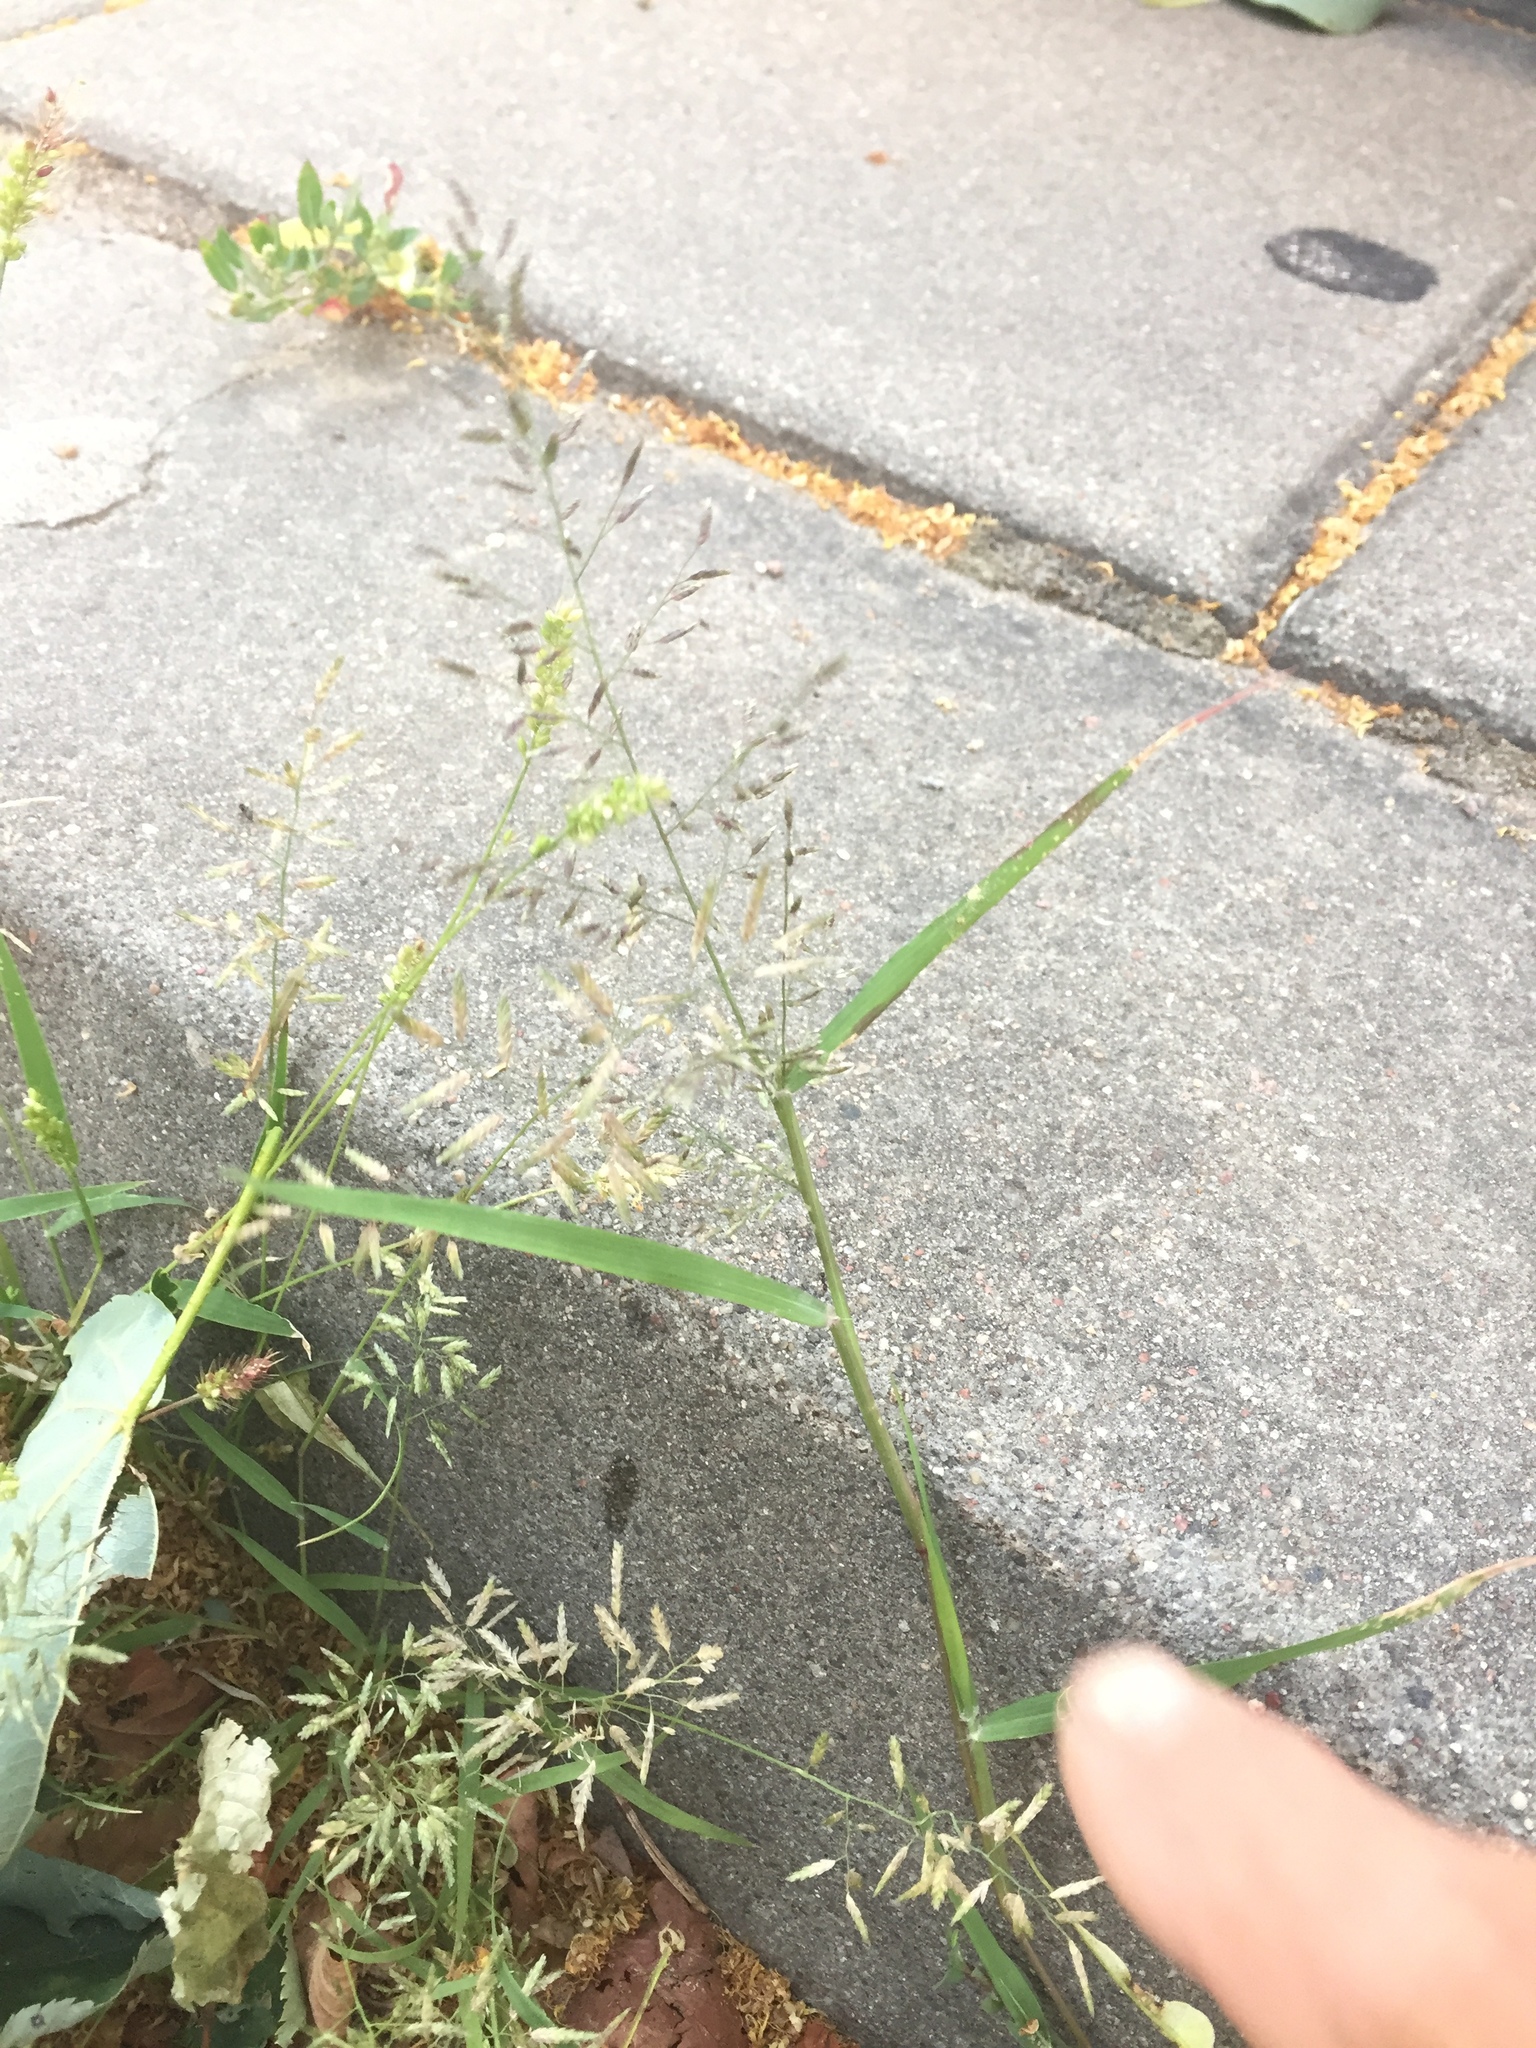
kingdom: Plantae
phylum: Tracheophyta
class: Liliopsida
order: Poales
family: Poaceae
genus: Eragrostis
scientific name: Eragrostis minor
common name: Small love-grass
